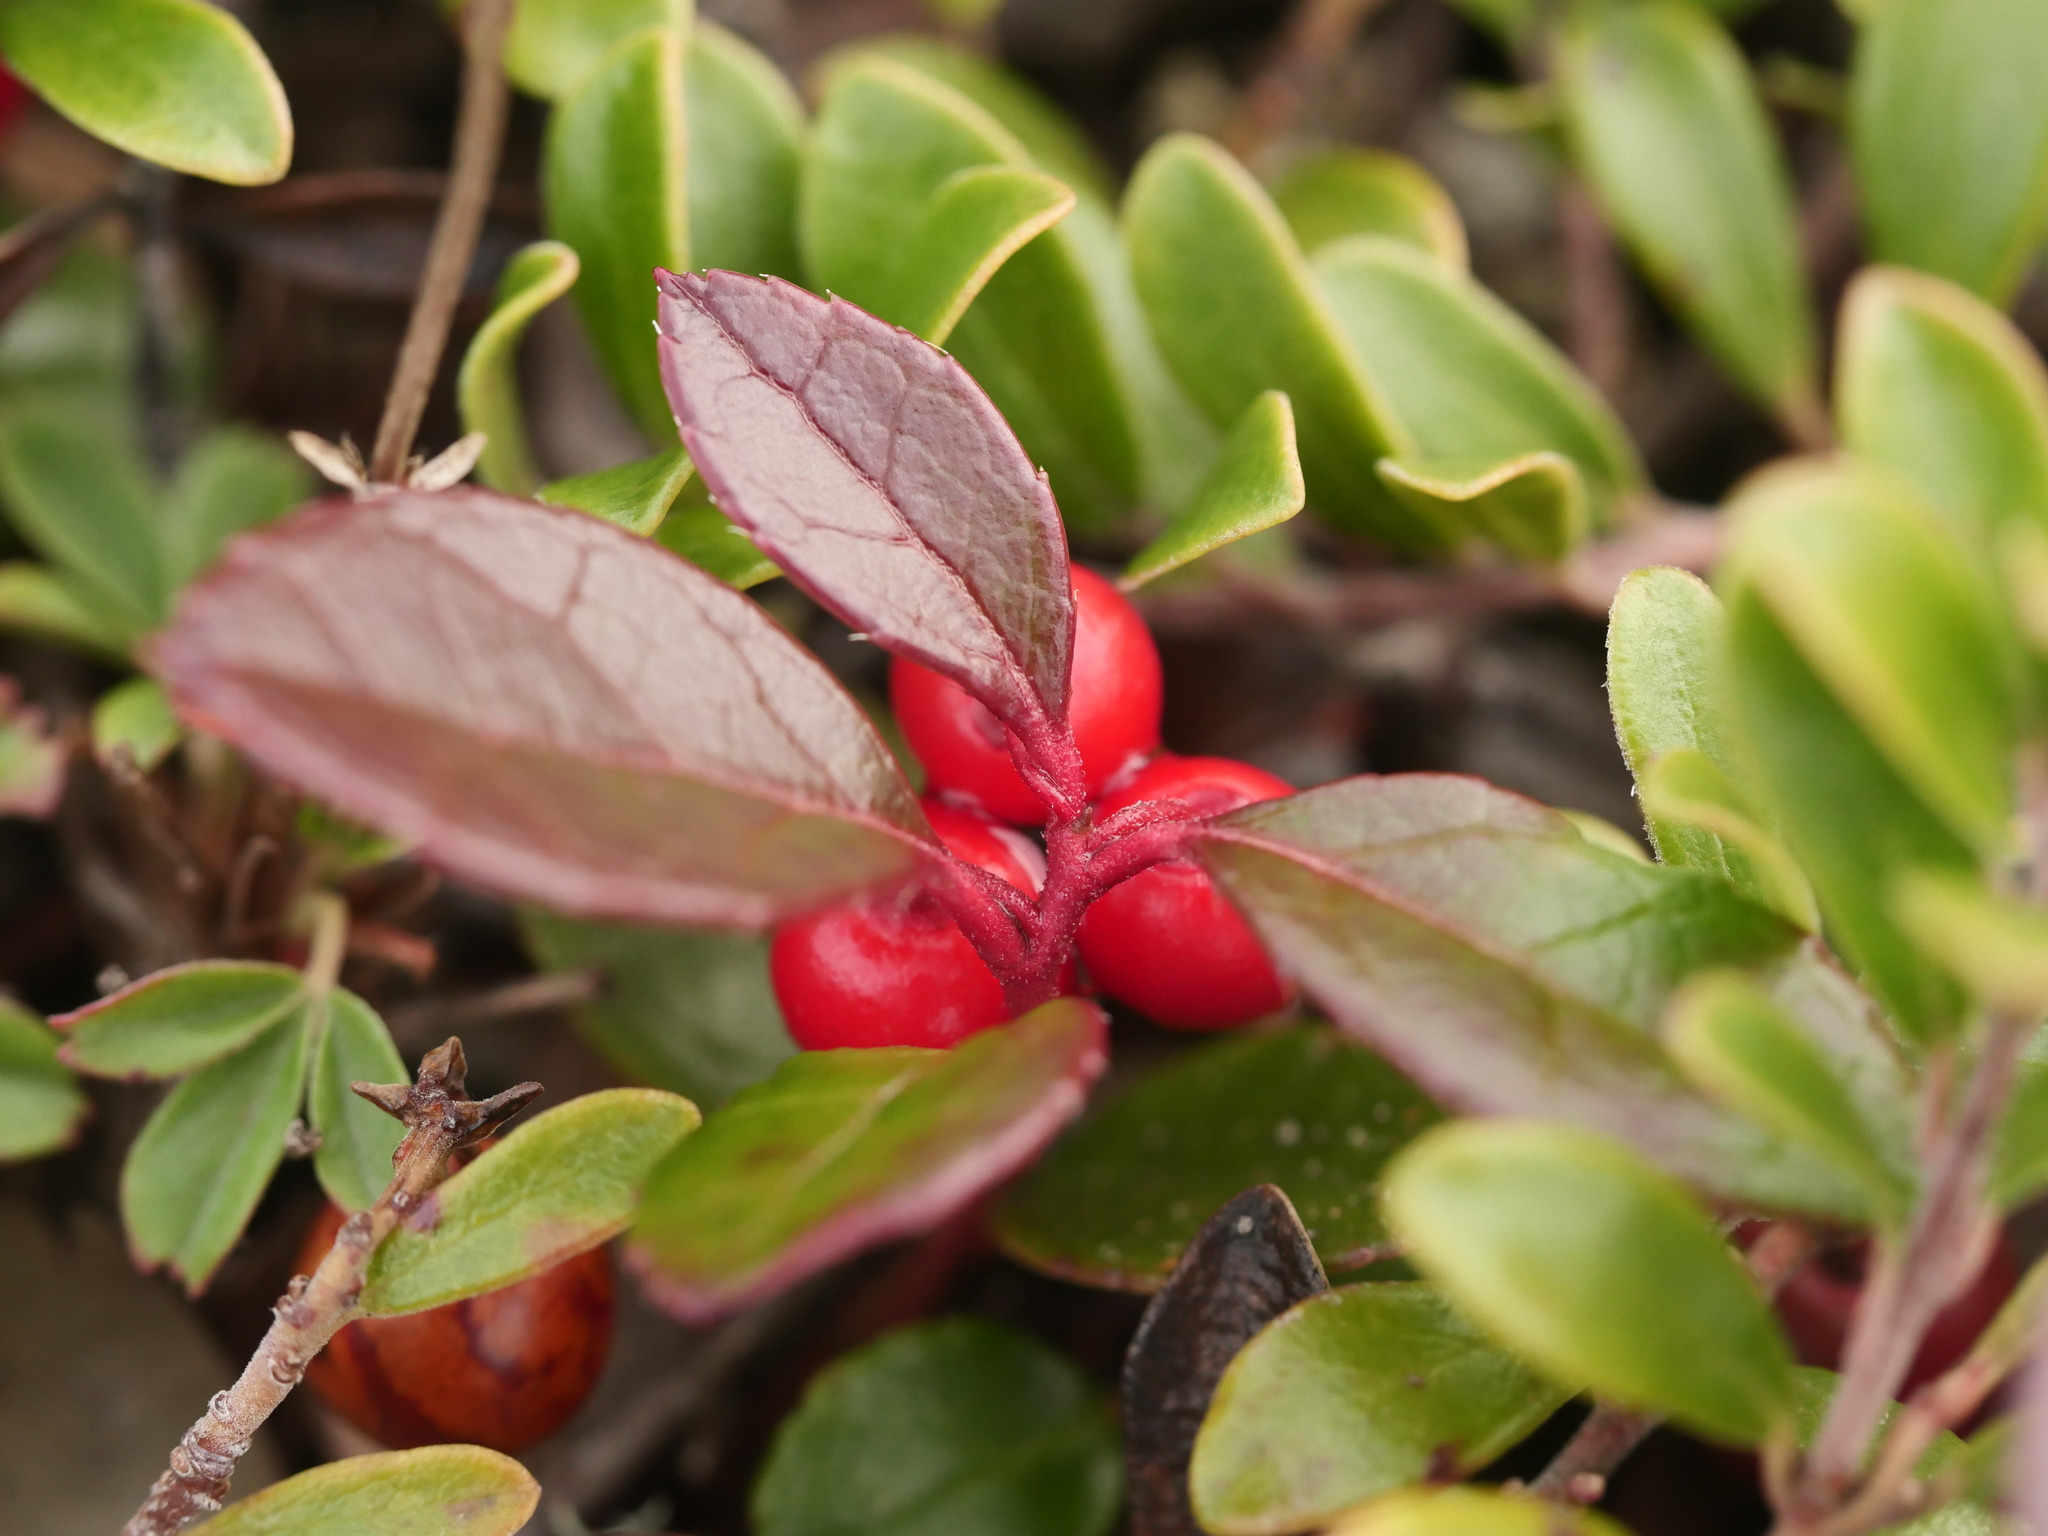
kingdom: Plantae
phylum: Tracheophyta
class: Magnoliopsida
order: Ericales
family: Ericaceae
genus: Gaultheria
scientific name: Gaultheria procumbens
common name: Checkerberry
